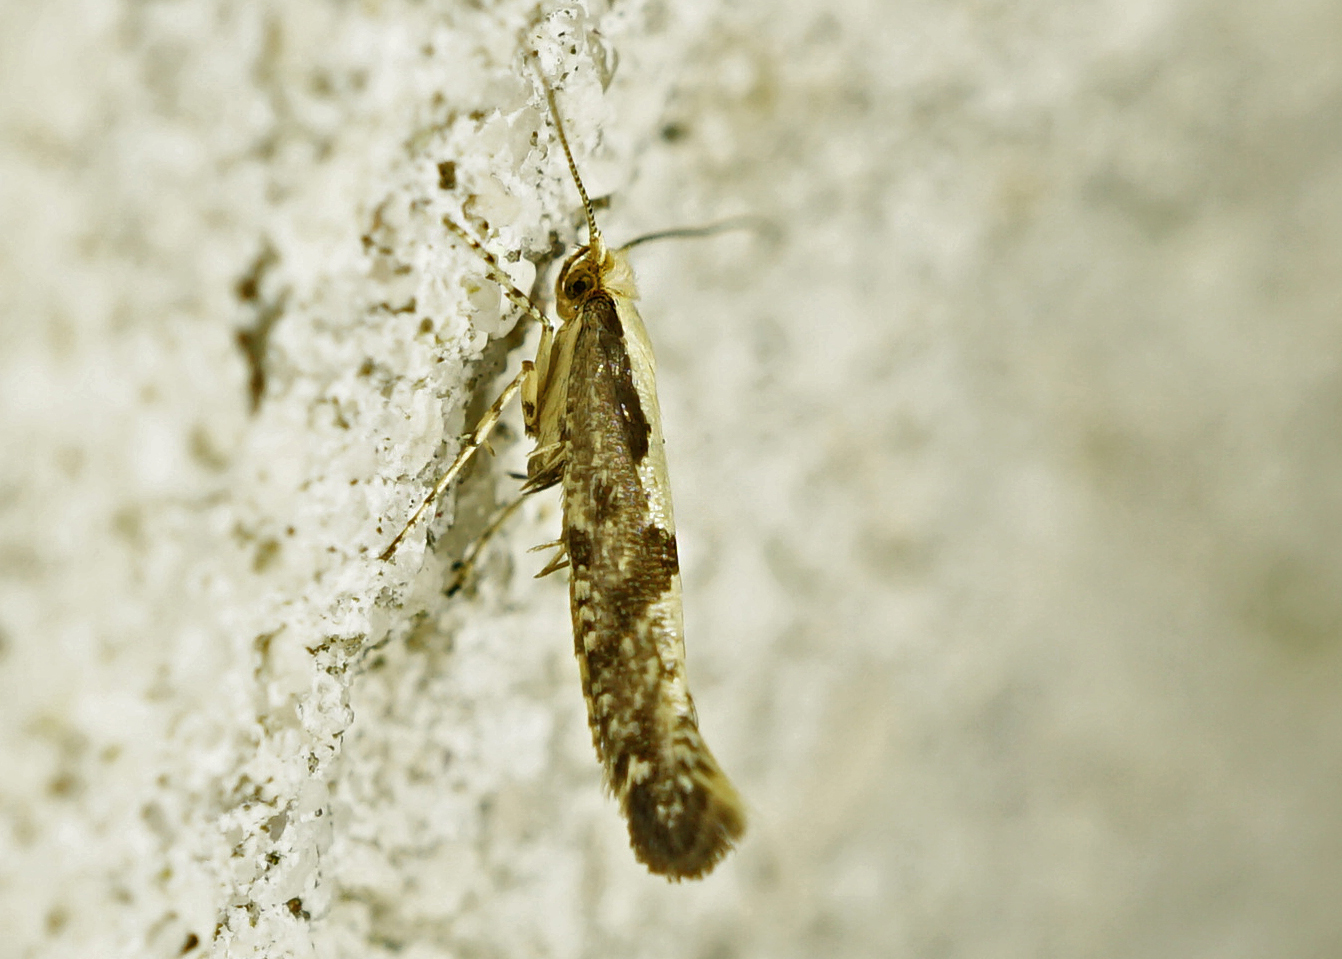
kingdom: Animalia
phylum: Arthropoda
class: Insecta
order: Lepidoptera
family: Argyresthiidae
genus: Argyresthia
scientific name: Argyresthia conjugella
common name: Apple fruit moth
